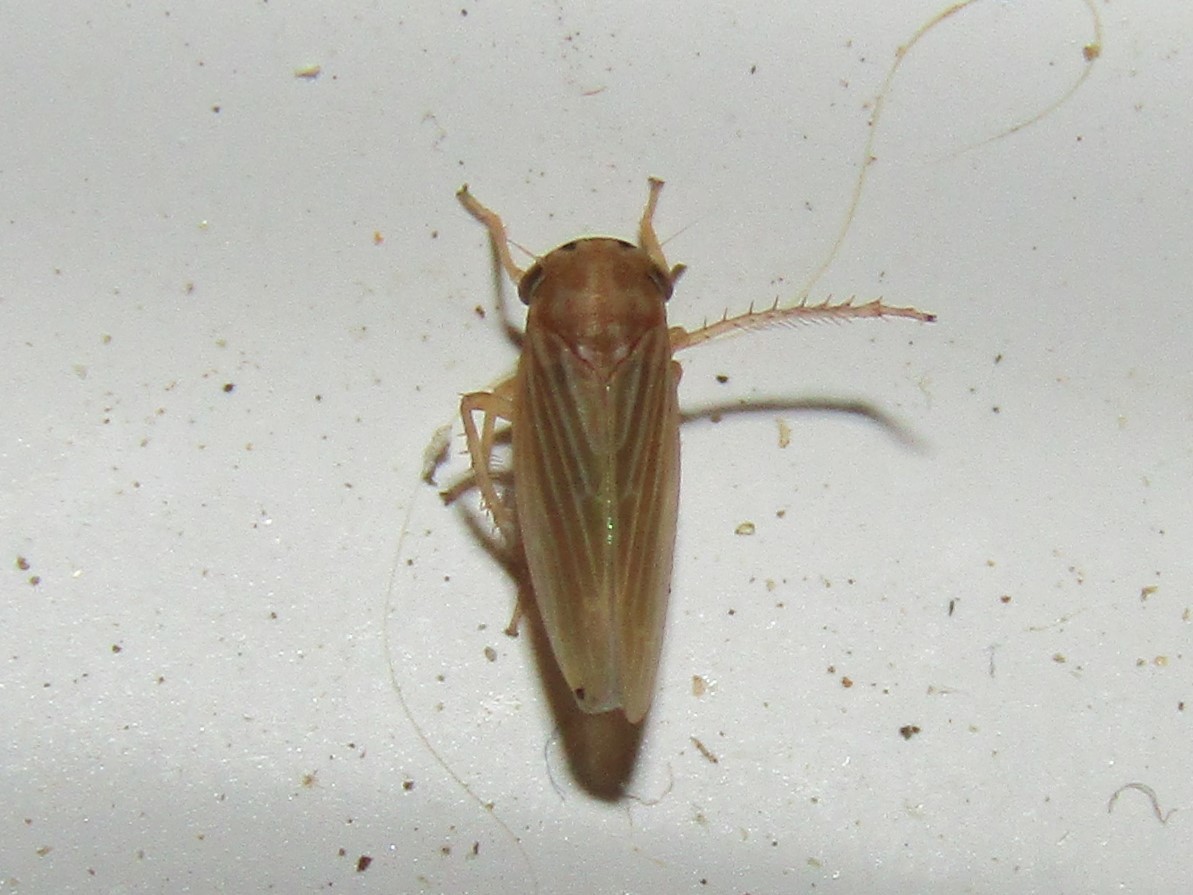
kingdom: Animalia
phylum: Arthropoda
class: Insecta
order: Hemiptera
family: Cicadellidae
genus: Agallia
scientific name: Agallia constricta
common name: The constricted leafhopper
